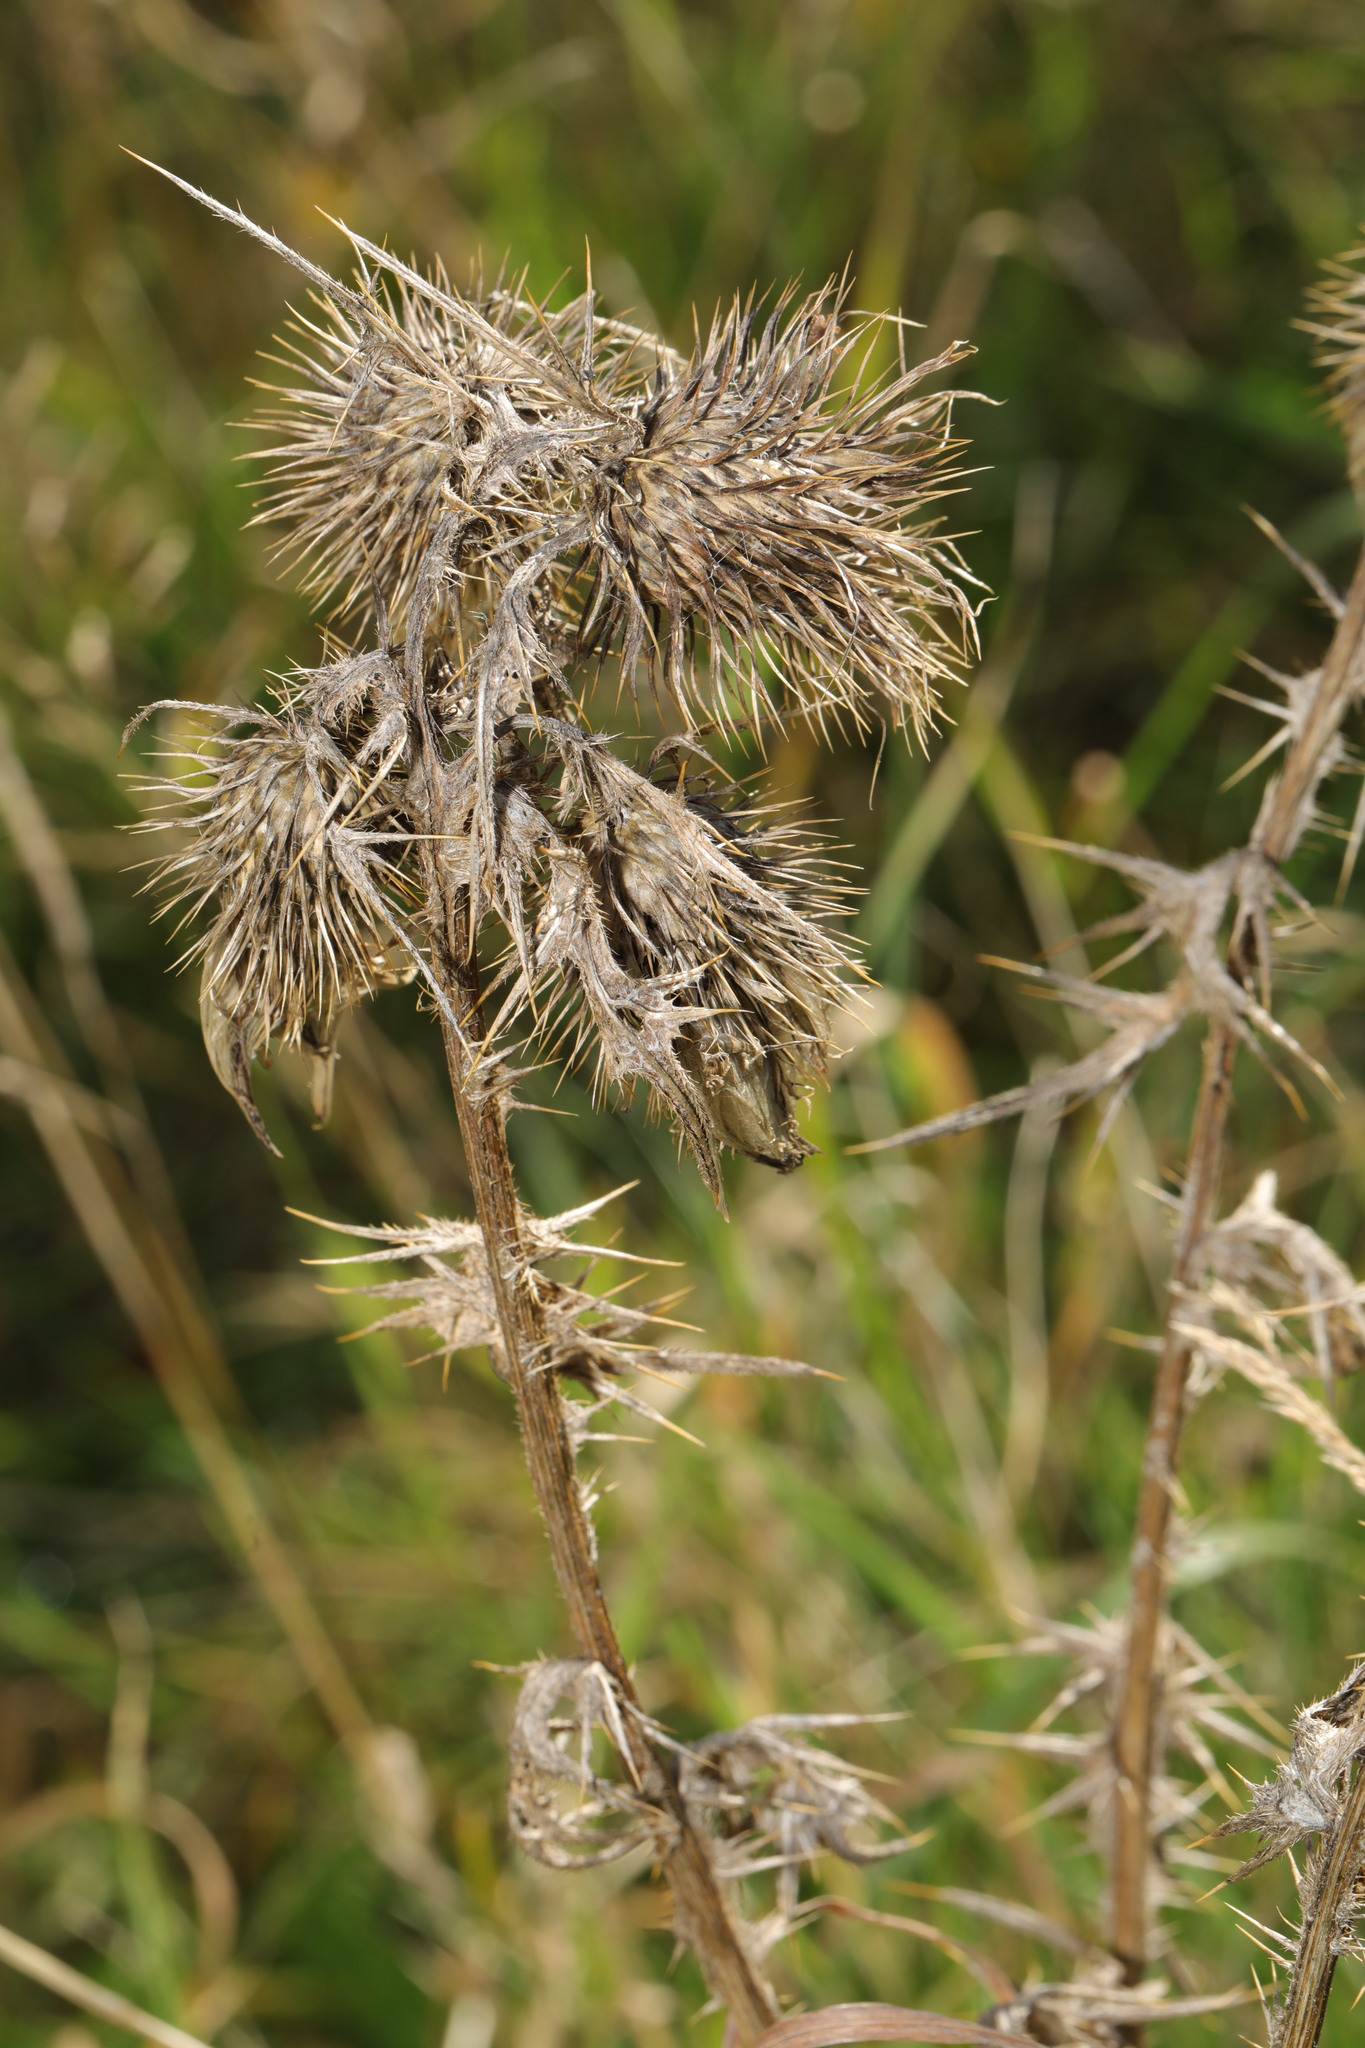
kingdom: Plantae
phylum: Tracheophyta
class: Magnoliopsida
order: Asterales
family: Asteraceae
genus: Cirsium
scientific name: Cirsium vulgare
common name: Bull thistle
